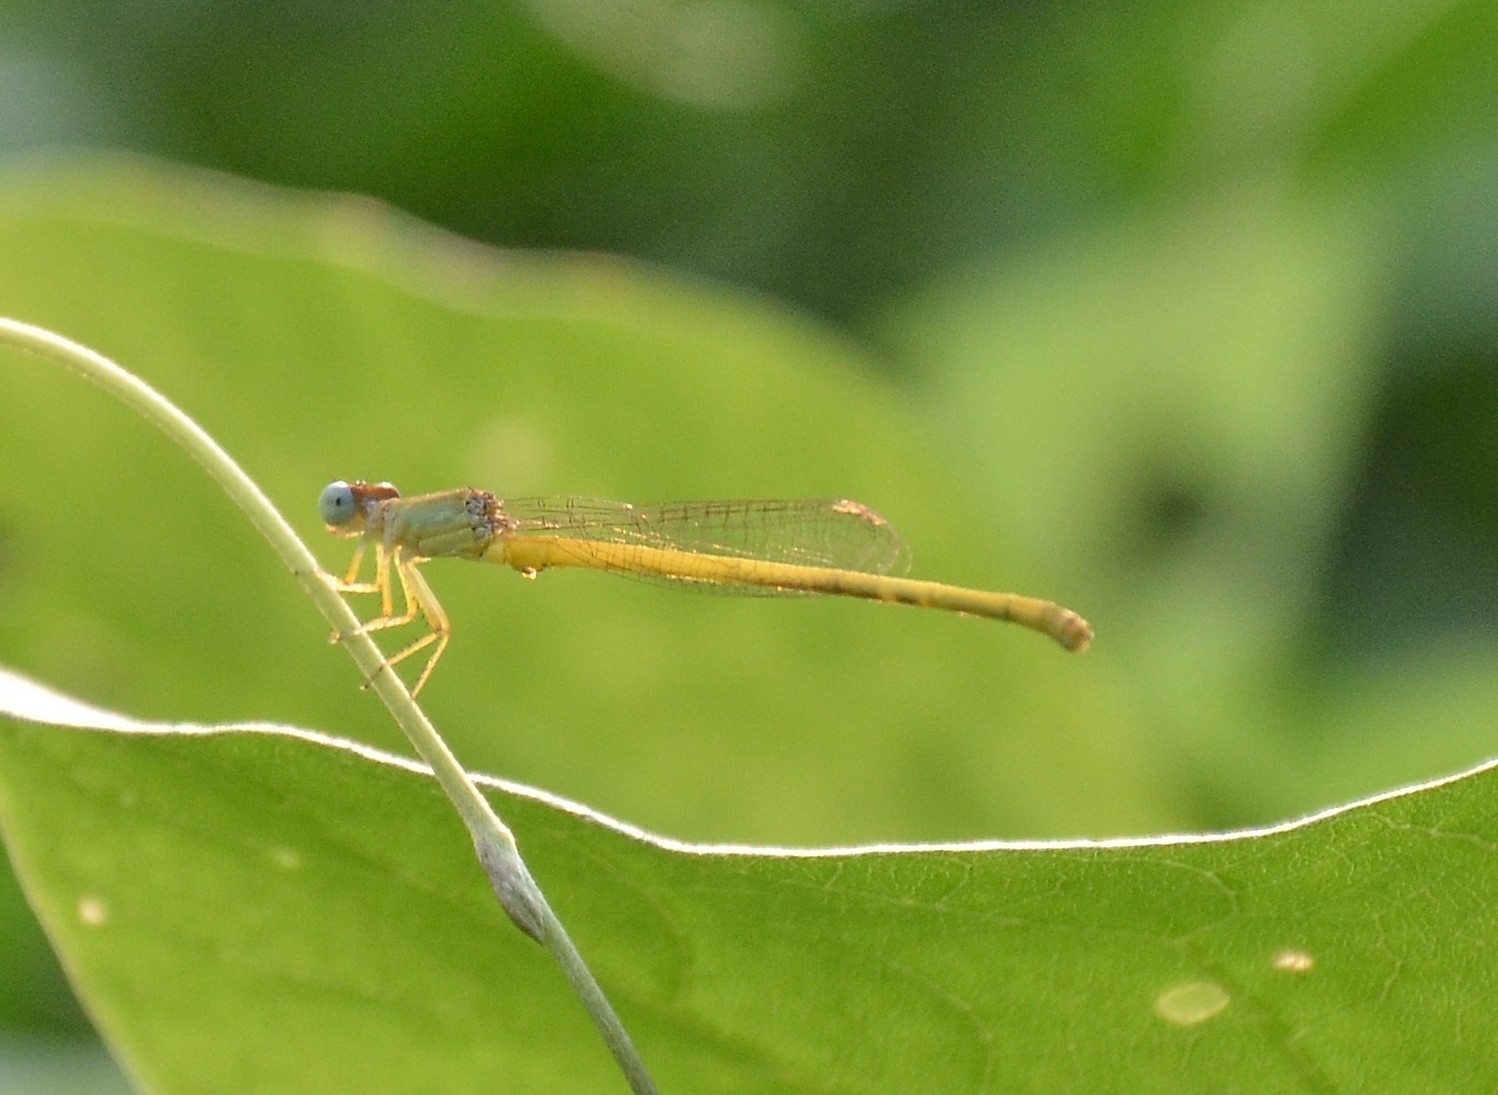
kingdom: Animalia
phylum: Arthropoda
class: Insecta
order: Odonata
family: Coenagrionidae
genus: Ceriagrion
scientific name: Ceriagrion coromandelianum
